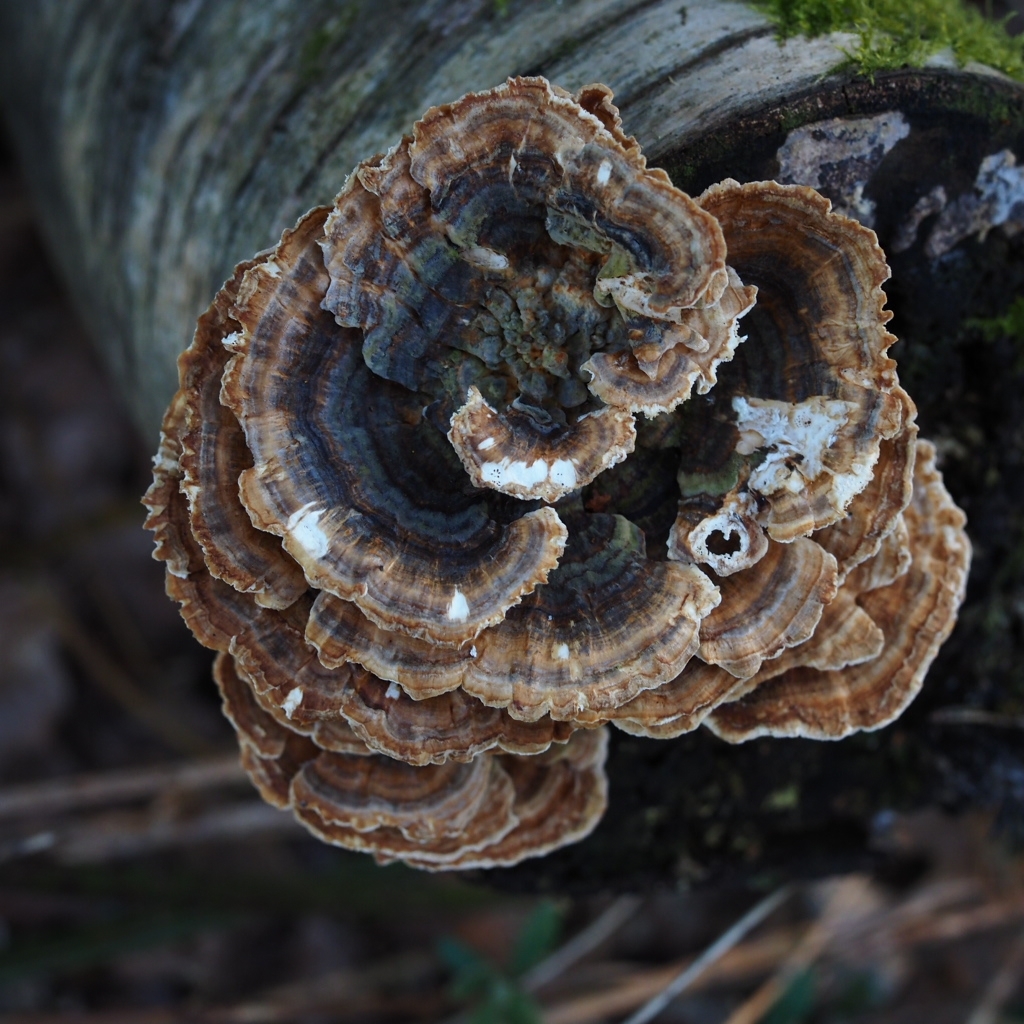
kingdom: Fungi
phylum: Basidiomycota
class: Agaricomycetes
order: Polyporales
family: Polyporaceae
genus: Trametes
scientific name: Trametes versicolor
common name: Turkeytail
